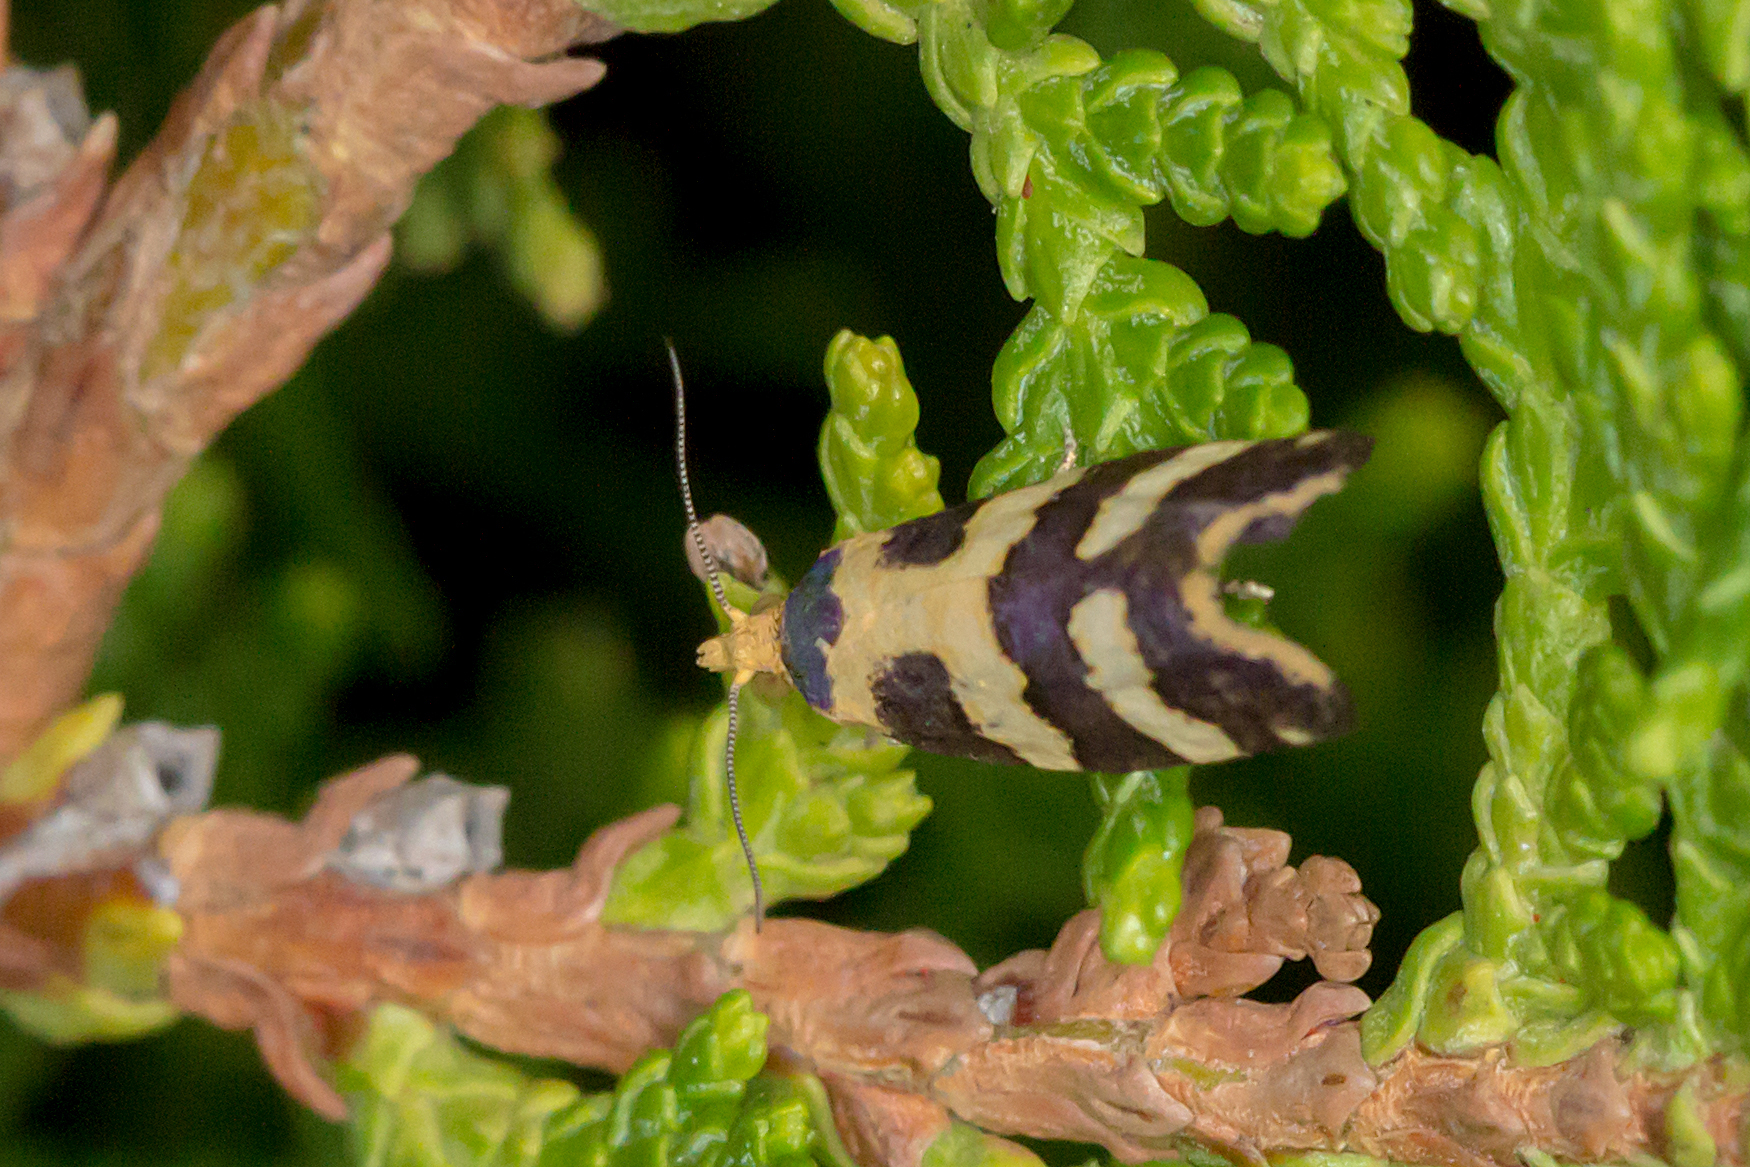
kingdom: Animalia
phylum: Arthropoda
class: Insecta
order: Lepidoptera
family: Tortricidae
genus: Conchylis
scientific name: Conchylis tasmaniana
